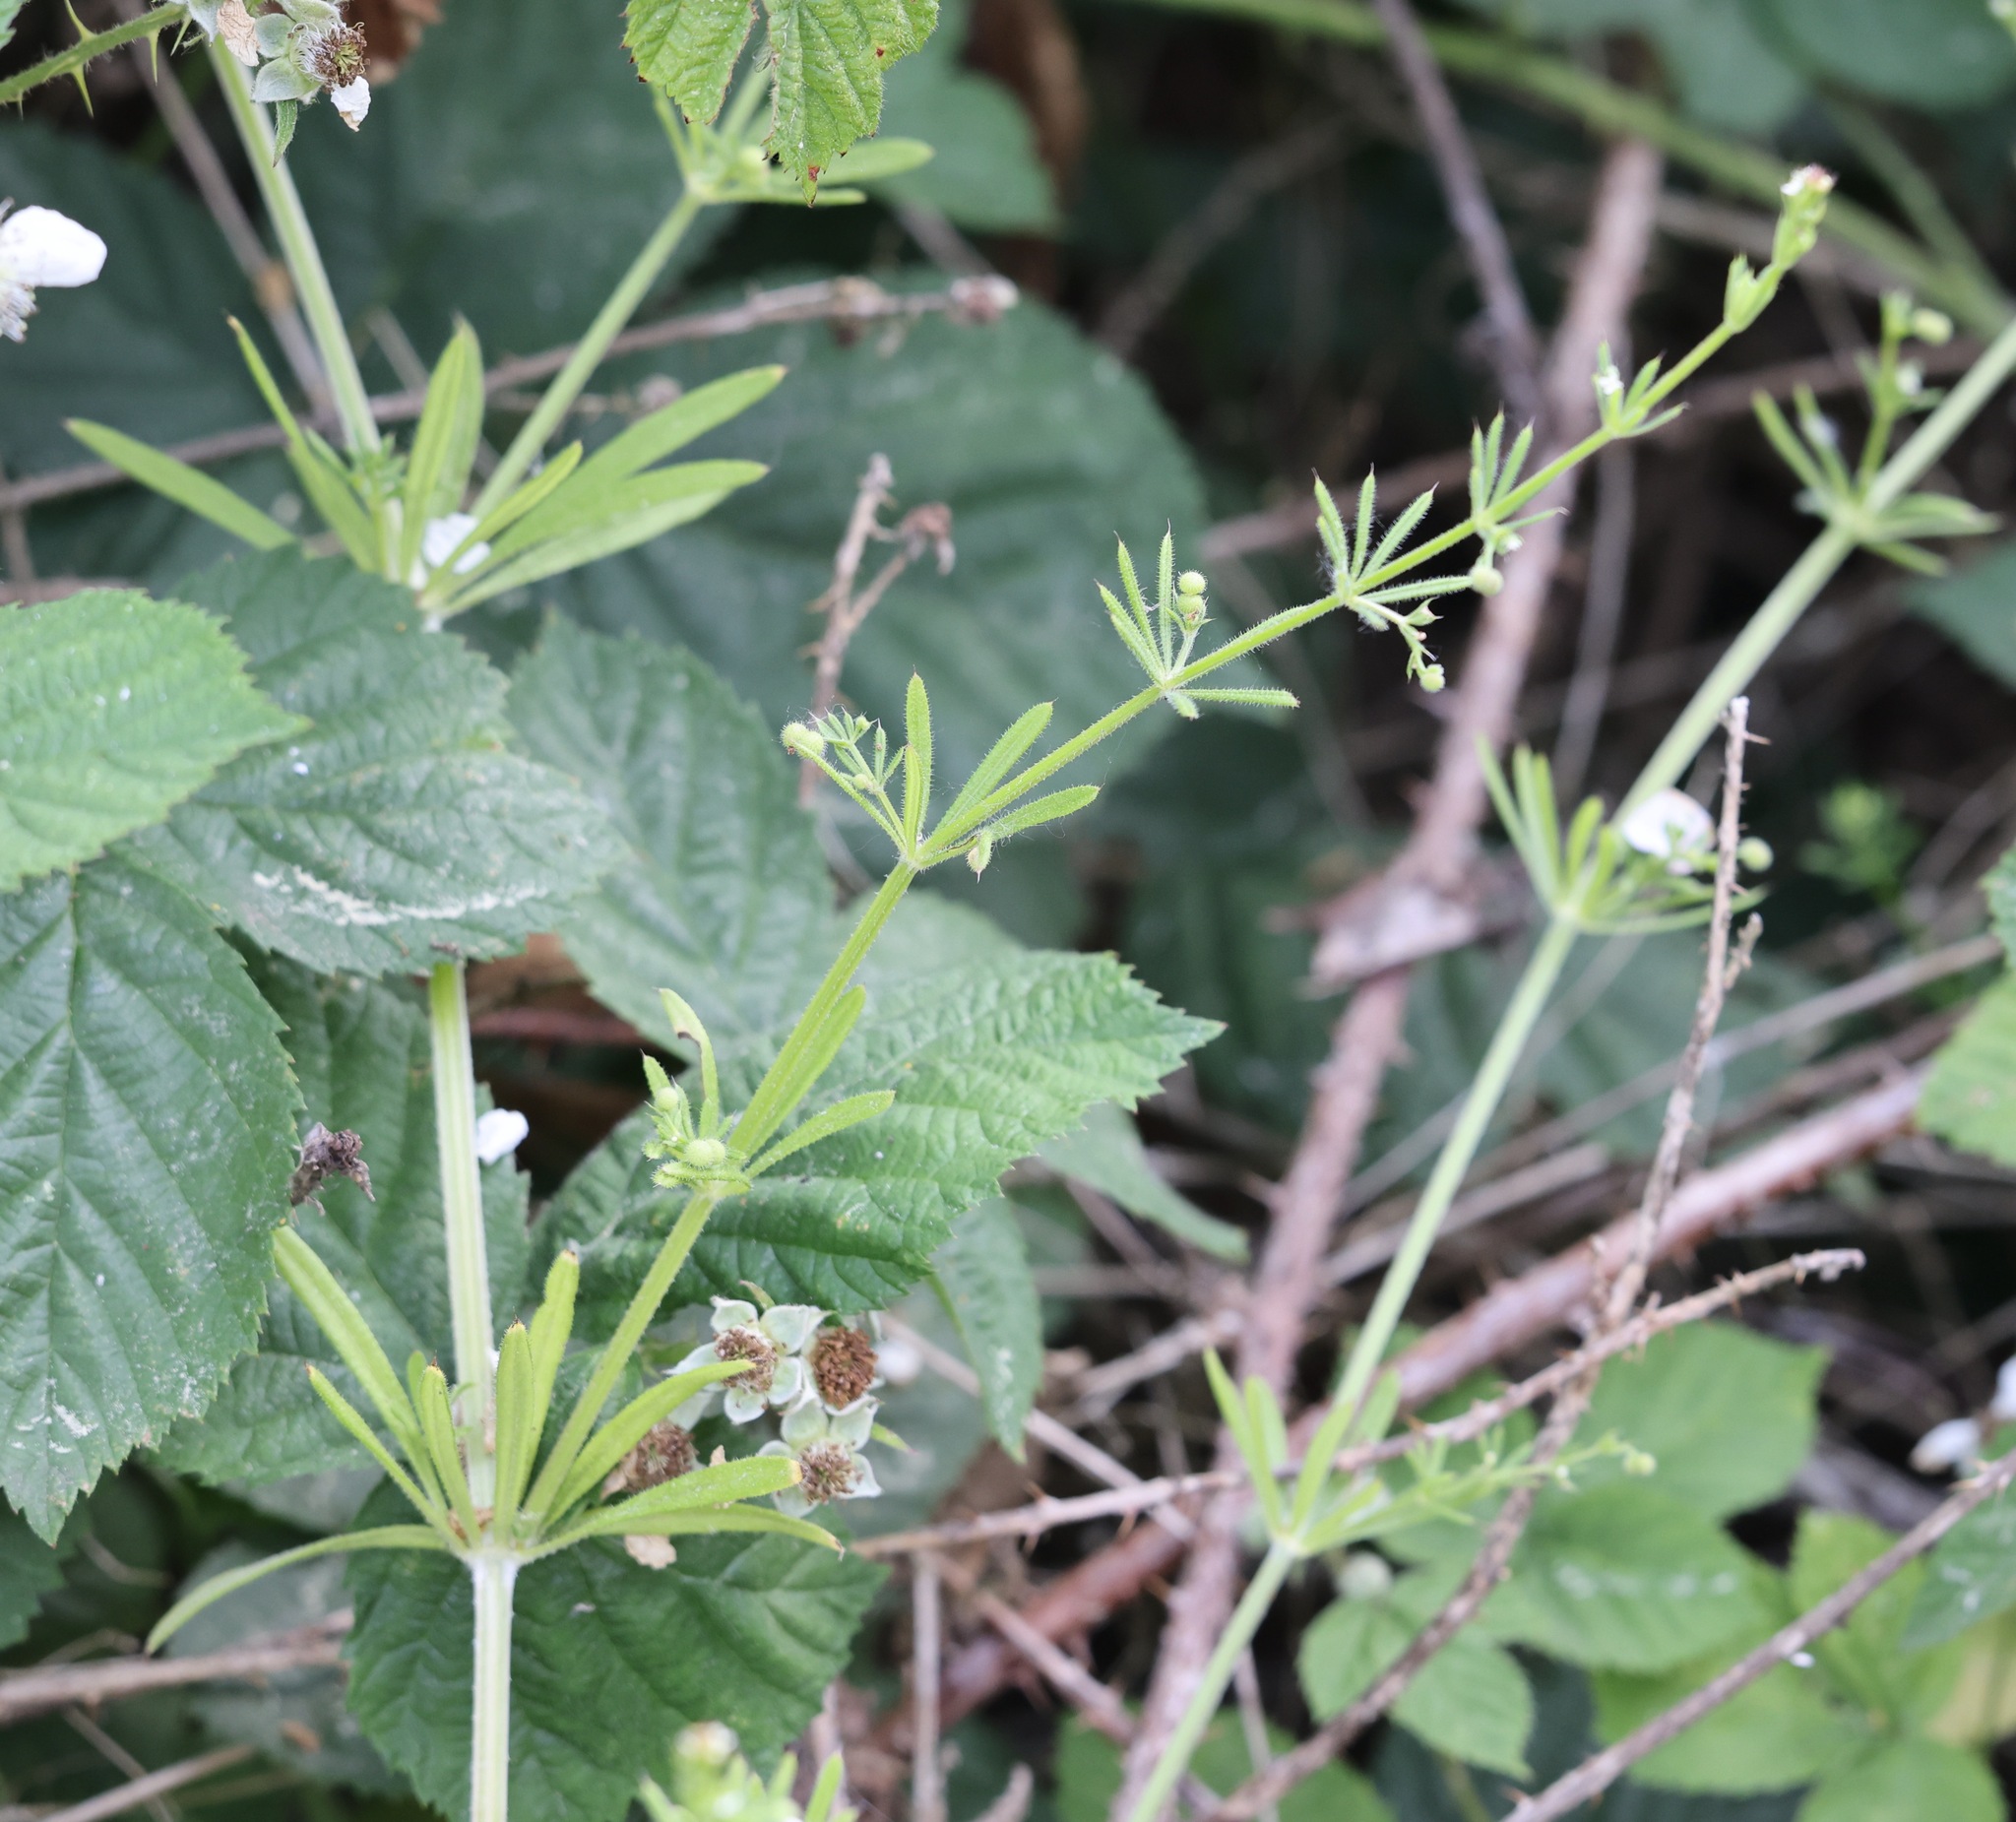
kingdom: Plantae
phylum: Tracheophyta
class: Magnoliopsida
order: Gentianales
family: Rubiaceae
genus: Galium
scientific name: Galium aparine
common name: Cleavers
